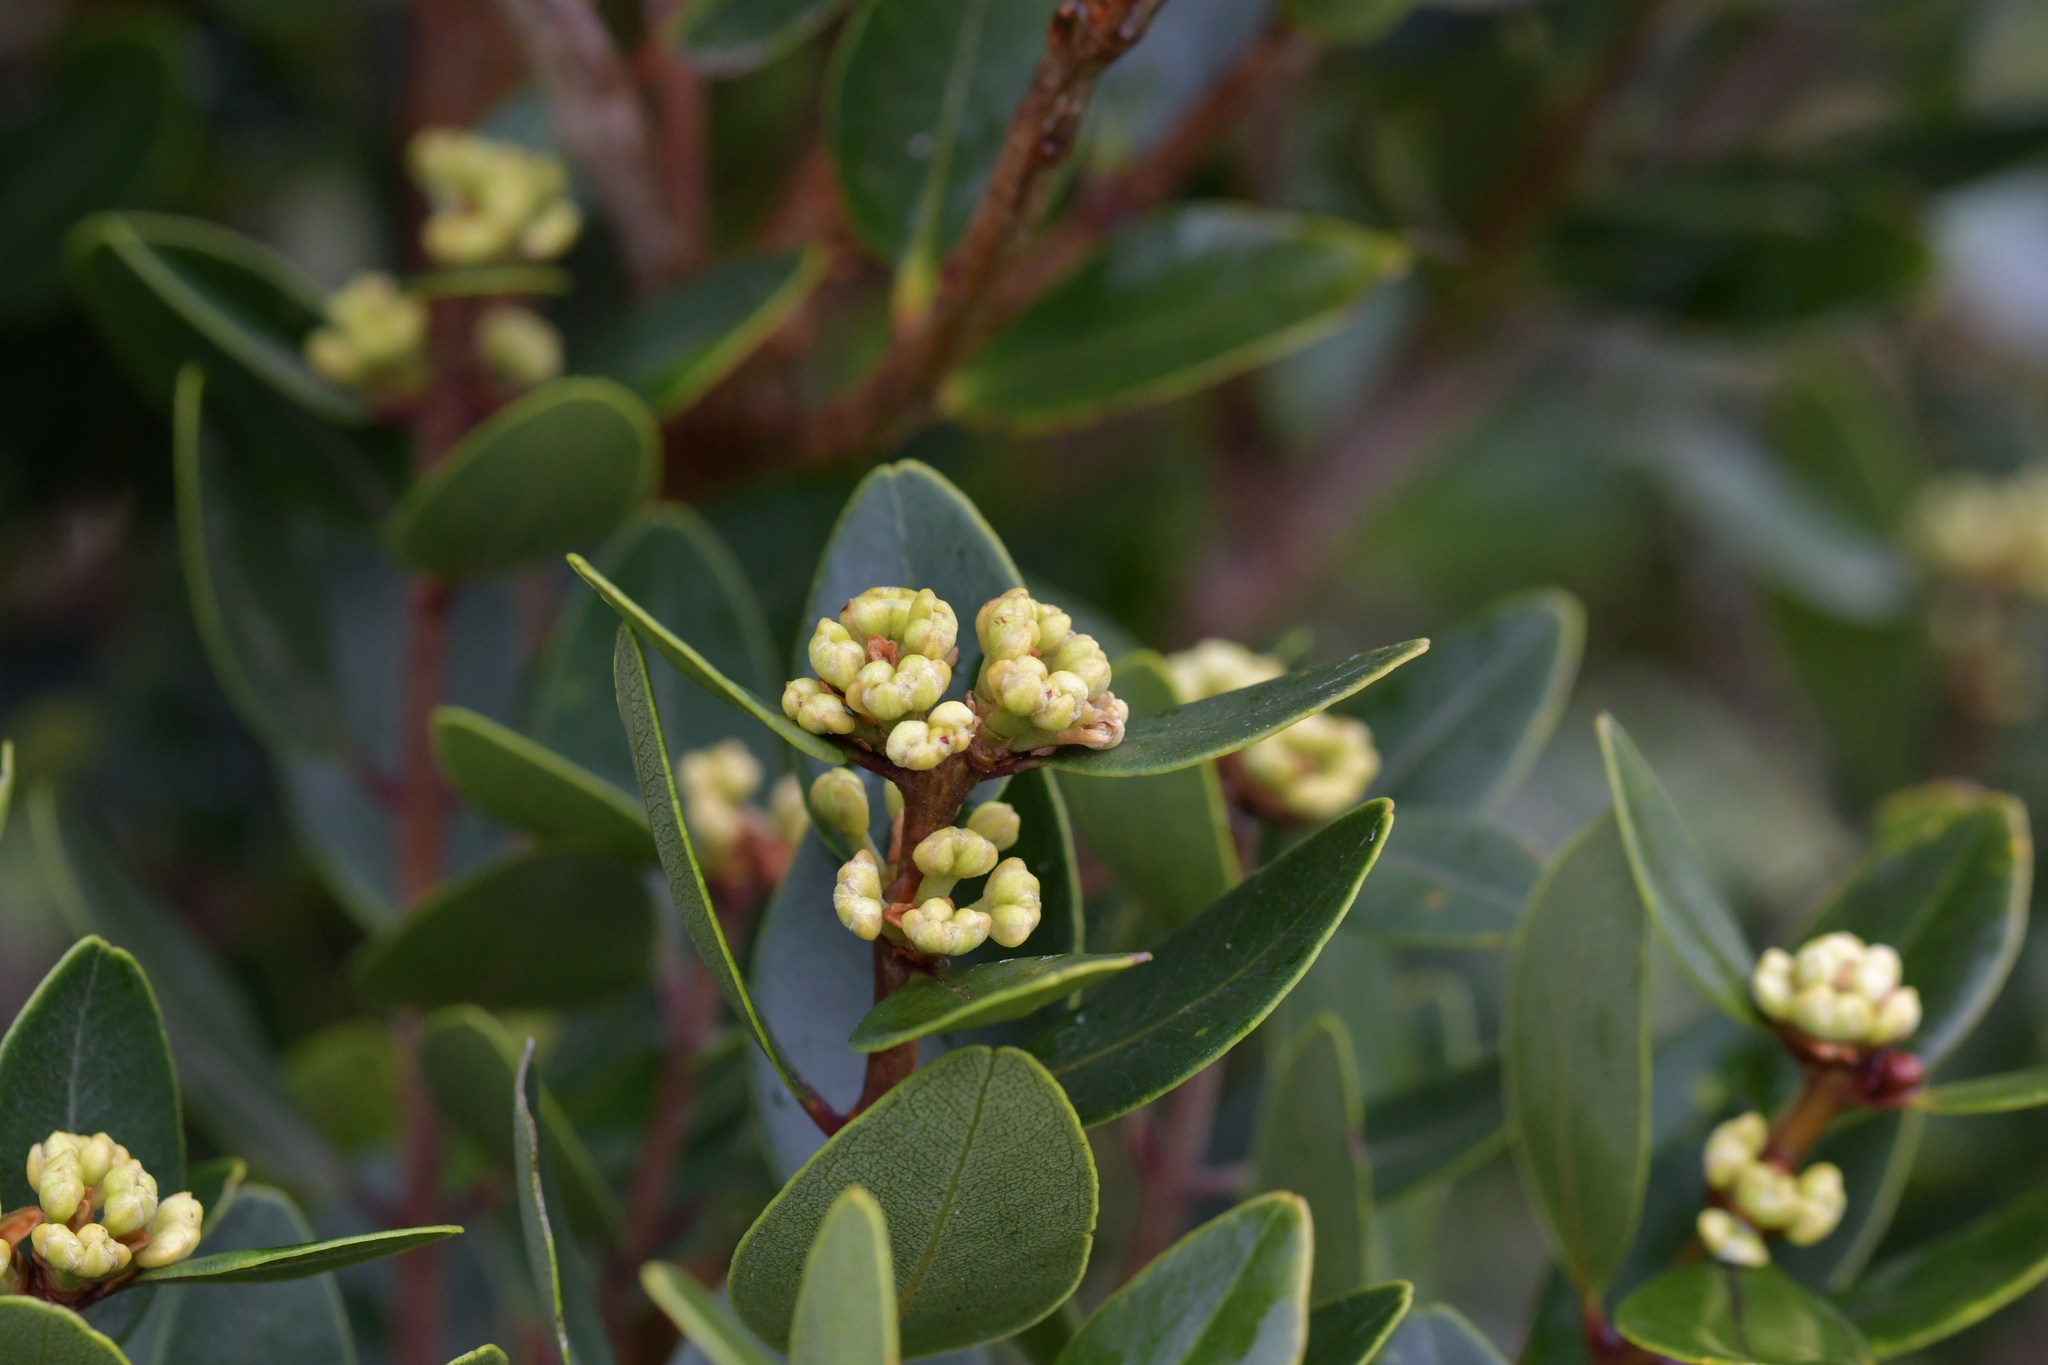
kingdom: Plantae
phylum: Tracheophyta
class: Magnoliopsida
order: Myrtales
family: Myrtaceae
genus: Metrosideros
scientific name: Metrosideros robusta
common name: Northern rata
